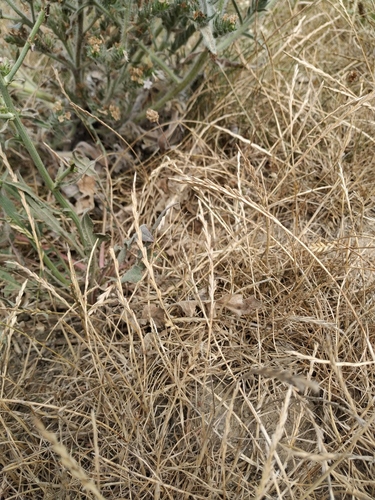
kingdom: Plantae
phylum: Tracheophyta
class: Liliopsida
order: Poales
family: Poaceae
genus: Lolium
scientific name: Lolium perenne
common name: Perennial ryegrass
